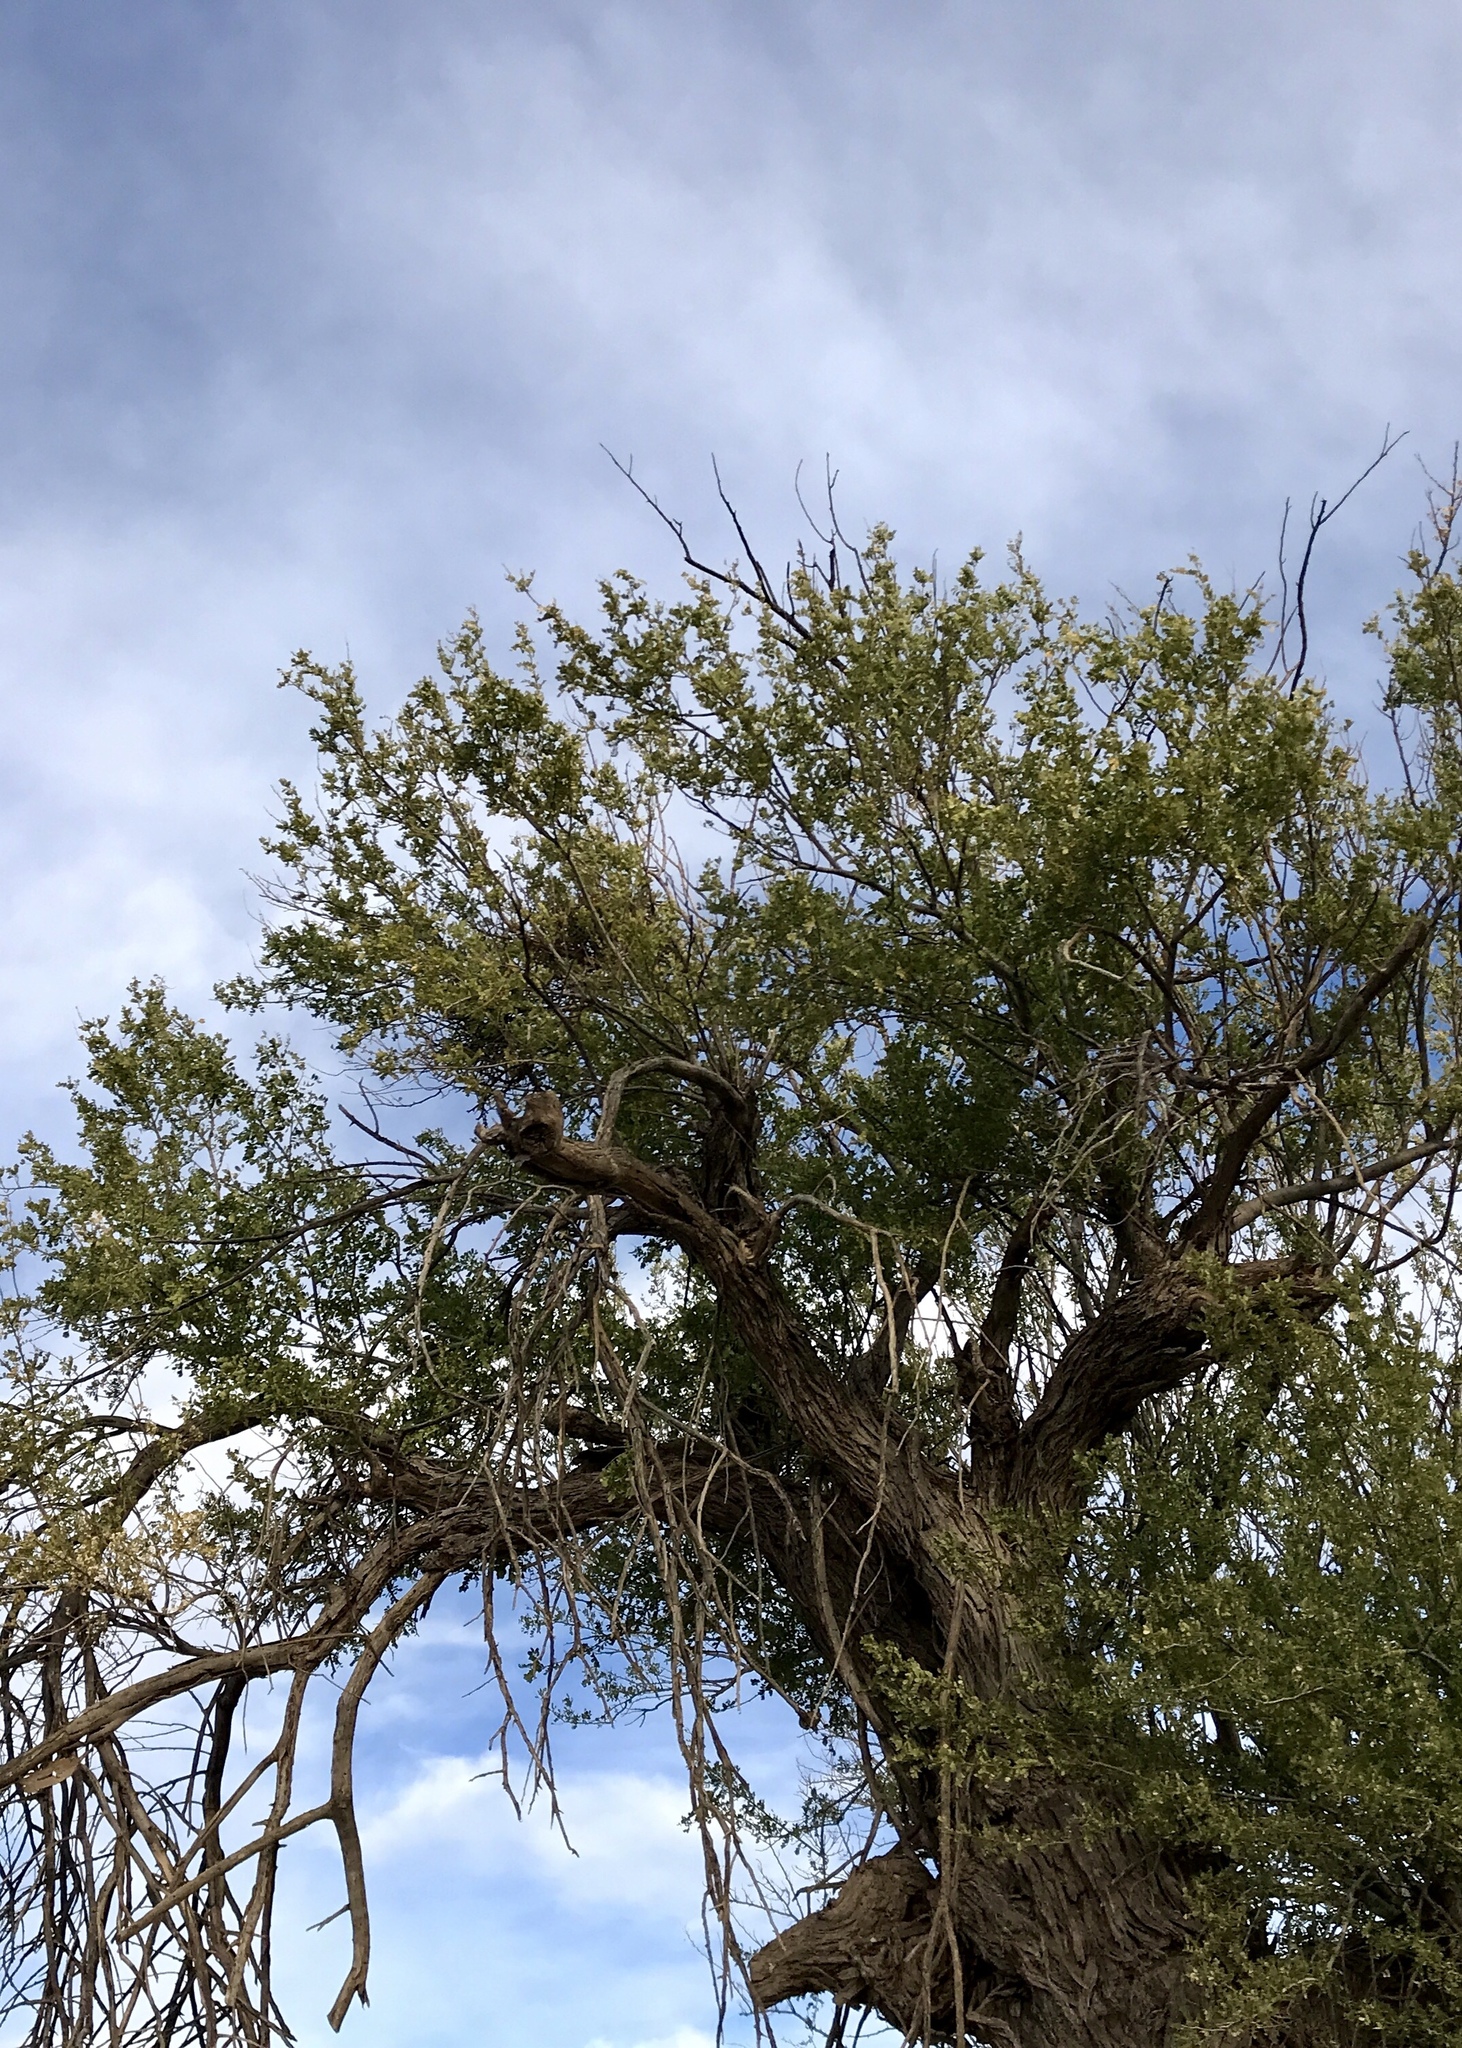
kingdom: Plantae
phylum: Tracheophyta
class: Magnoliopsida
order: Fabales
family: Fabaceae
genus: Olneya
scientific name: Olneya tesota
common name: Desert ironwood
